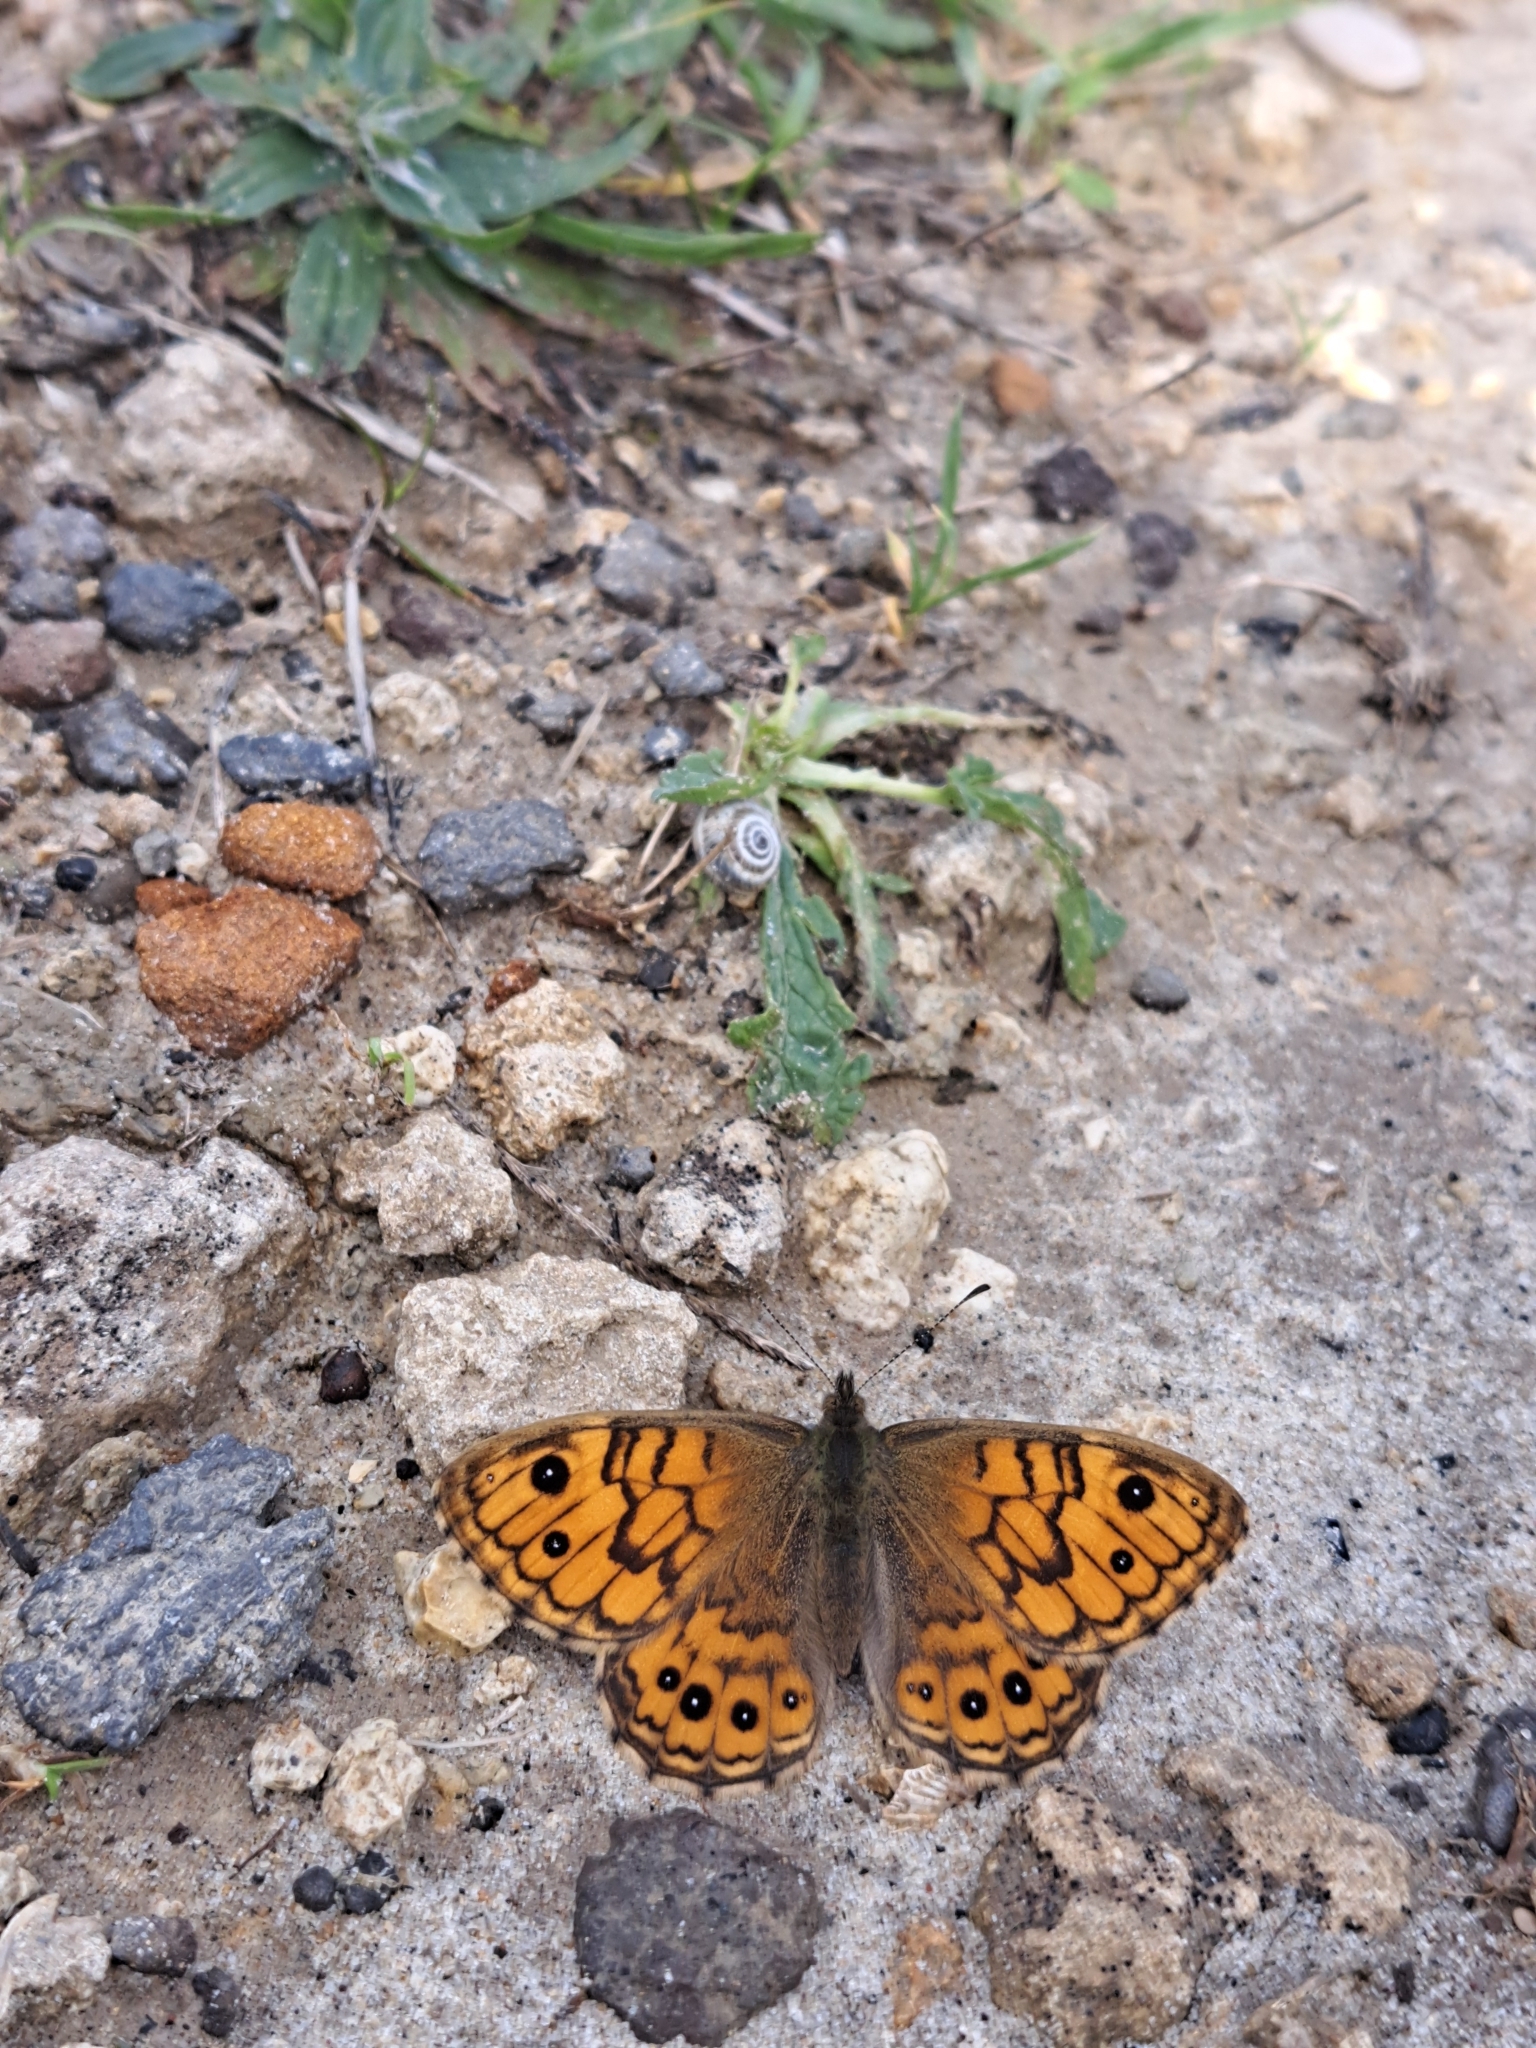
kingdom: Animalia
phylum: Arthropoda
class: Insecta
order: Lepidoptera
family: Nymphalidae
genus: Pararge
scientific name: Pararge Lasiommata megera
